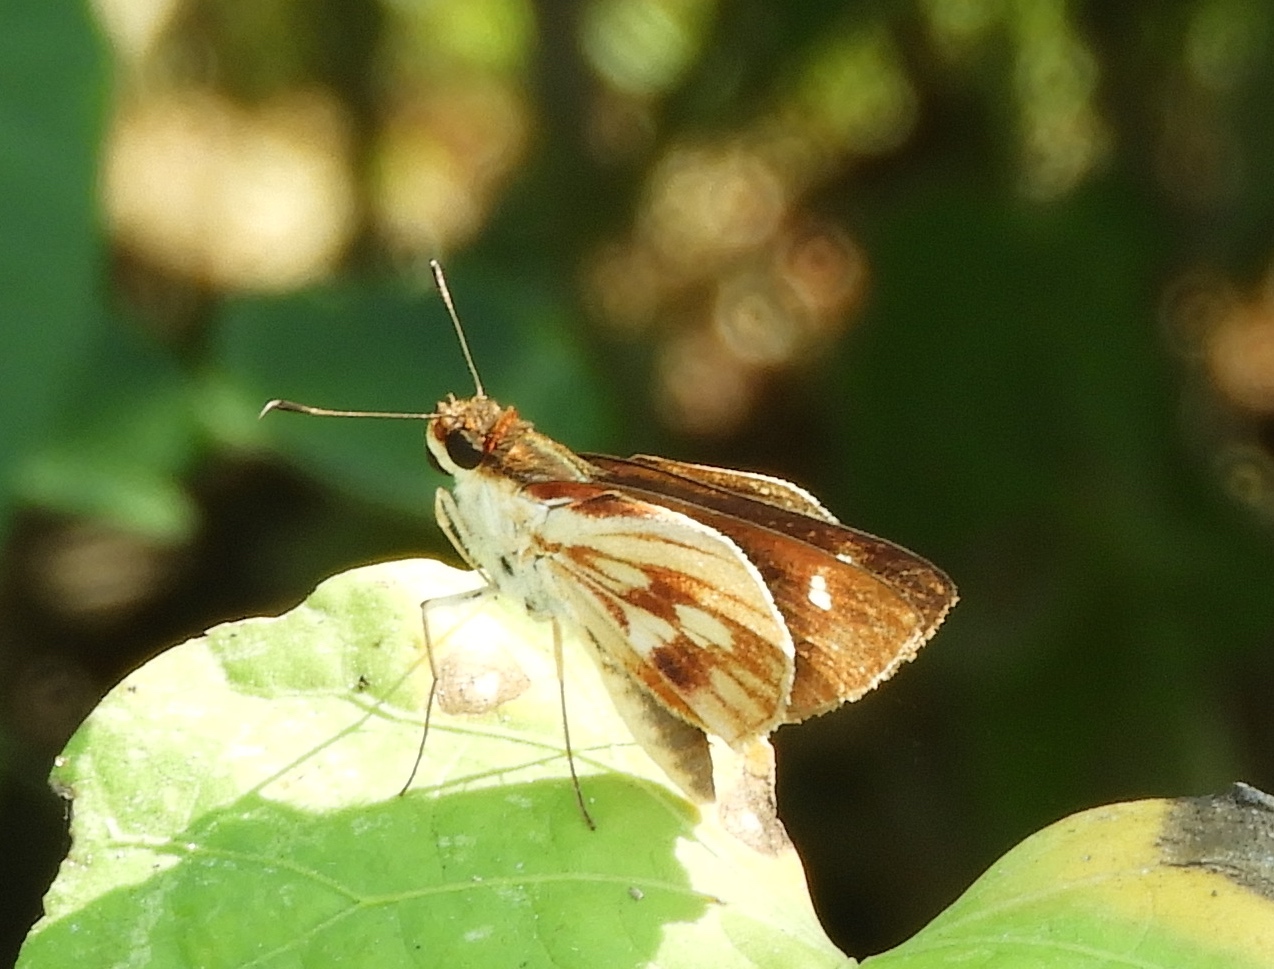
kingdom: Animalia
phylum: Arthropoda
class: Insecta
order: Lepidoptera
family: Hesperiidae
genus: Troyus
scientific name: Troyus fantasos
